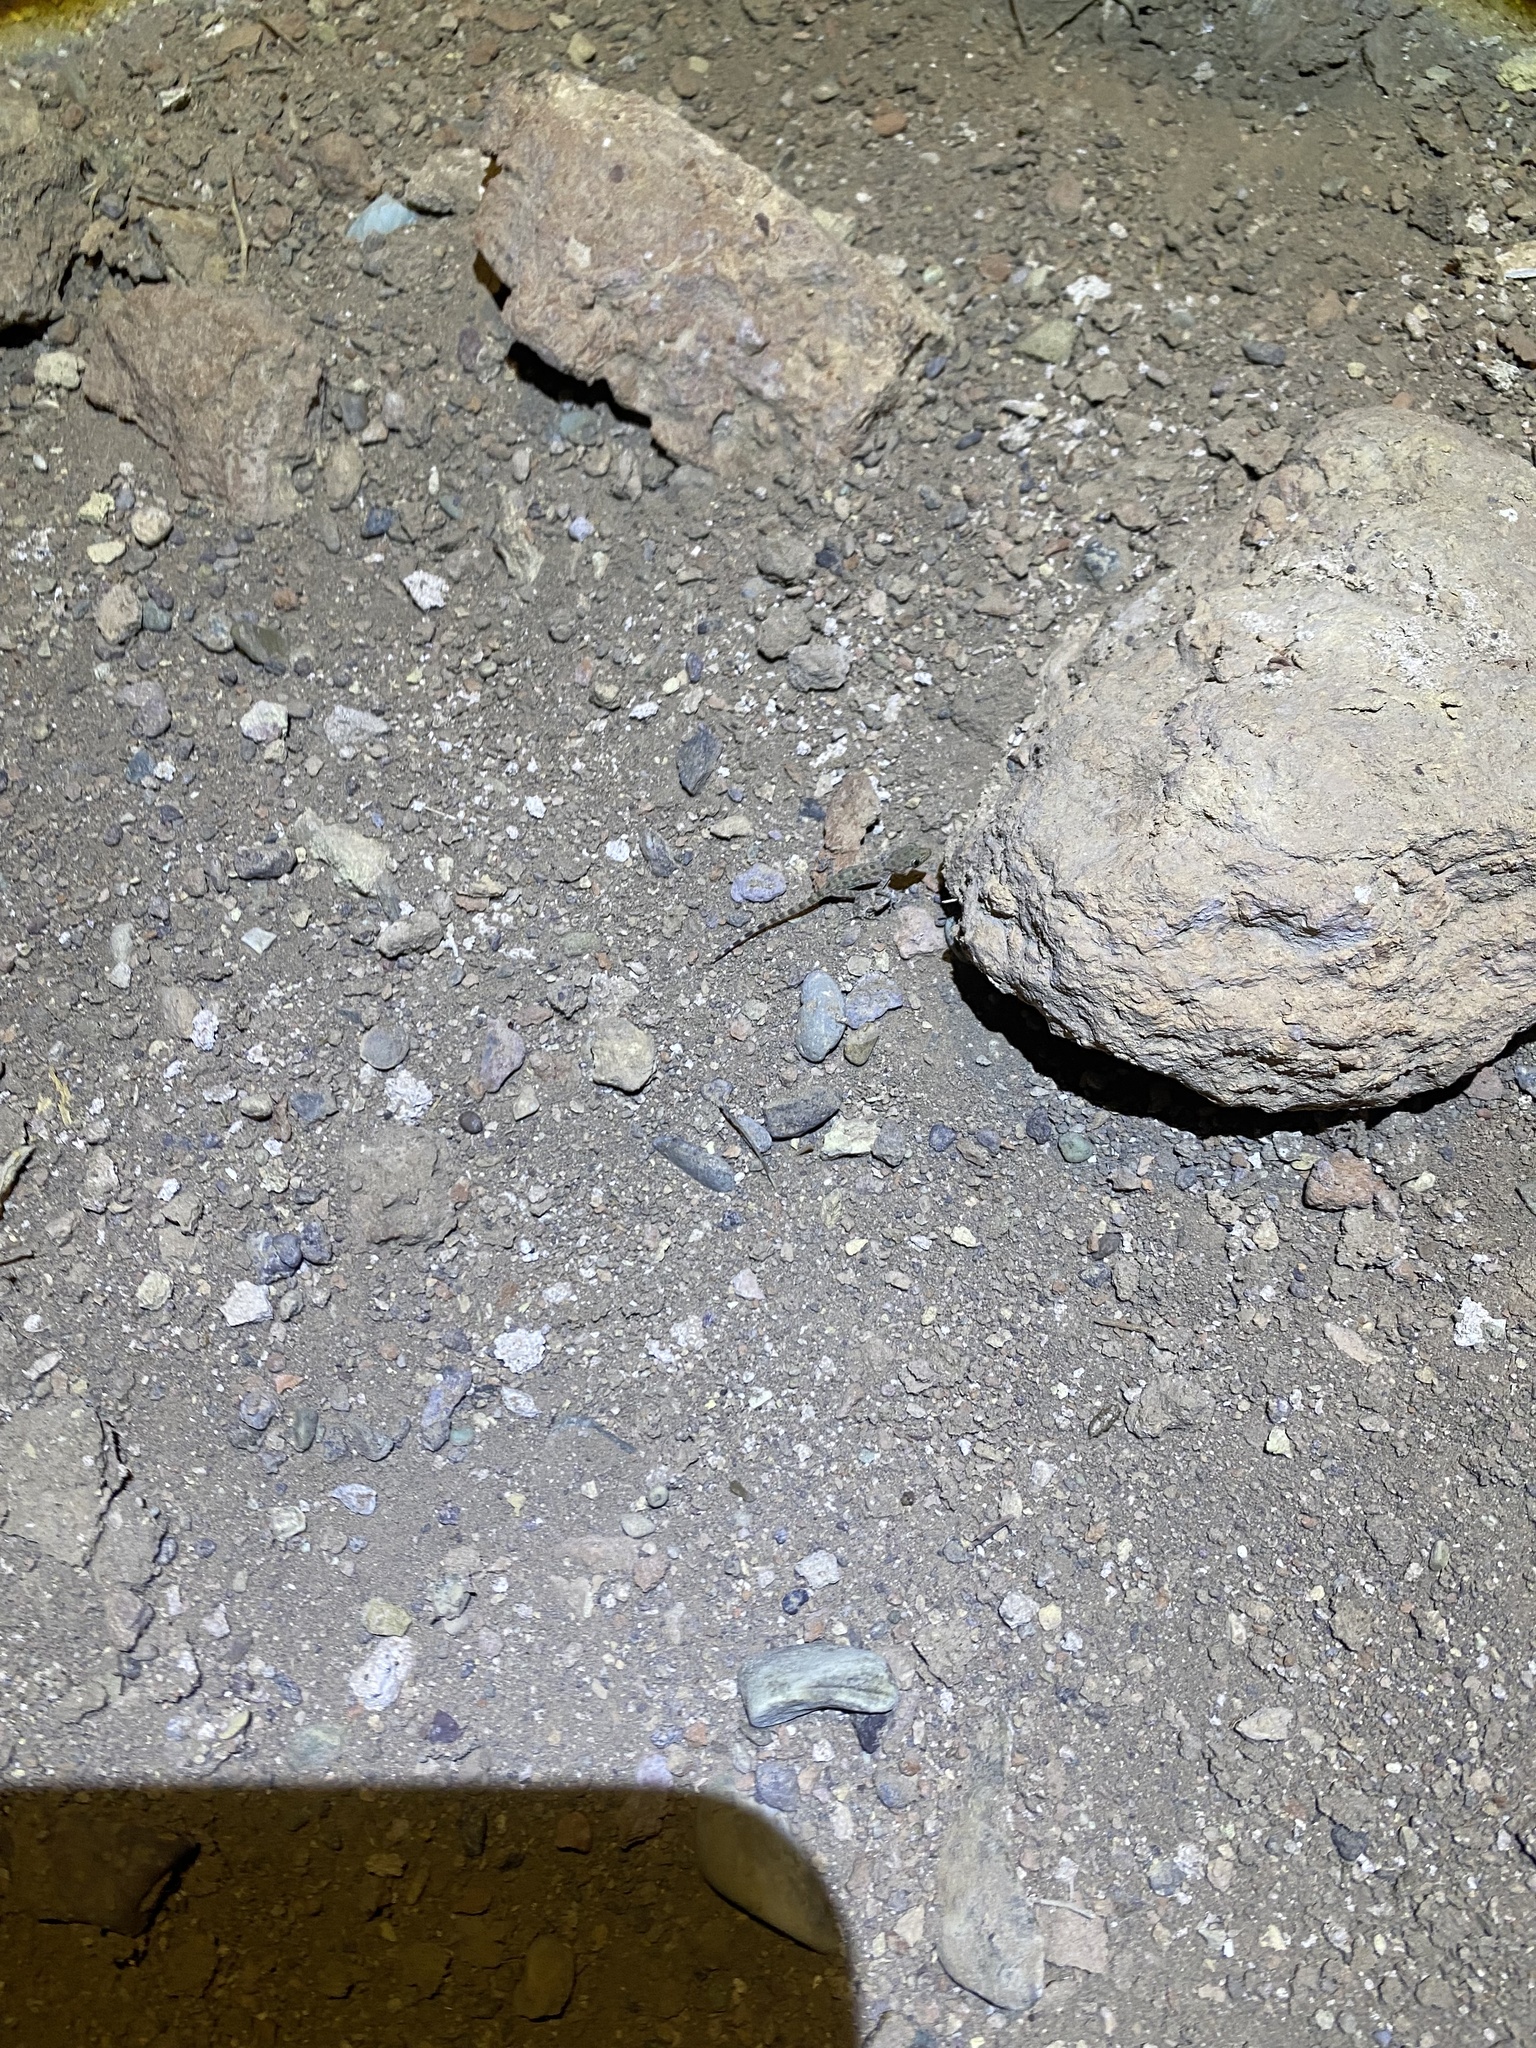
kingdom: Animalia
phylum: Chordata
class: Squamata
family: Gekkonidae
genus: Cyrtopodion
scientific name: Cyrtopodion scabrum
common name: Rough-tailed gecko
